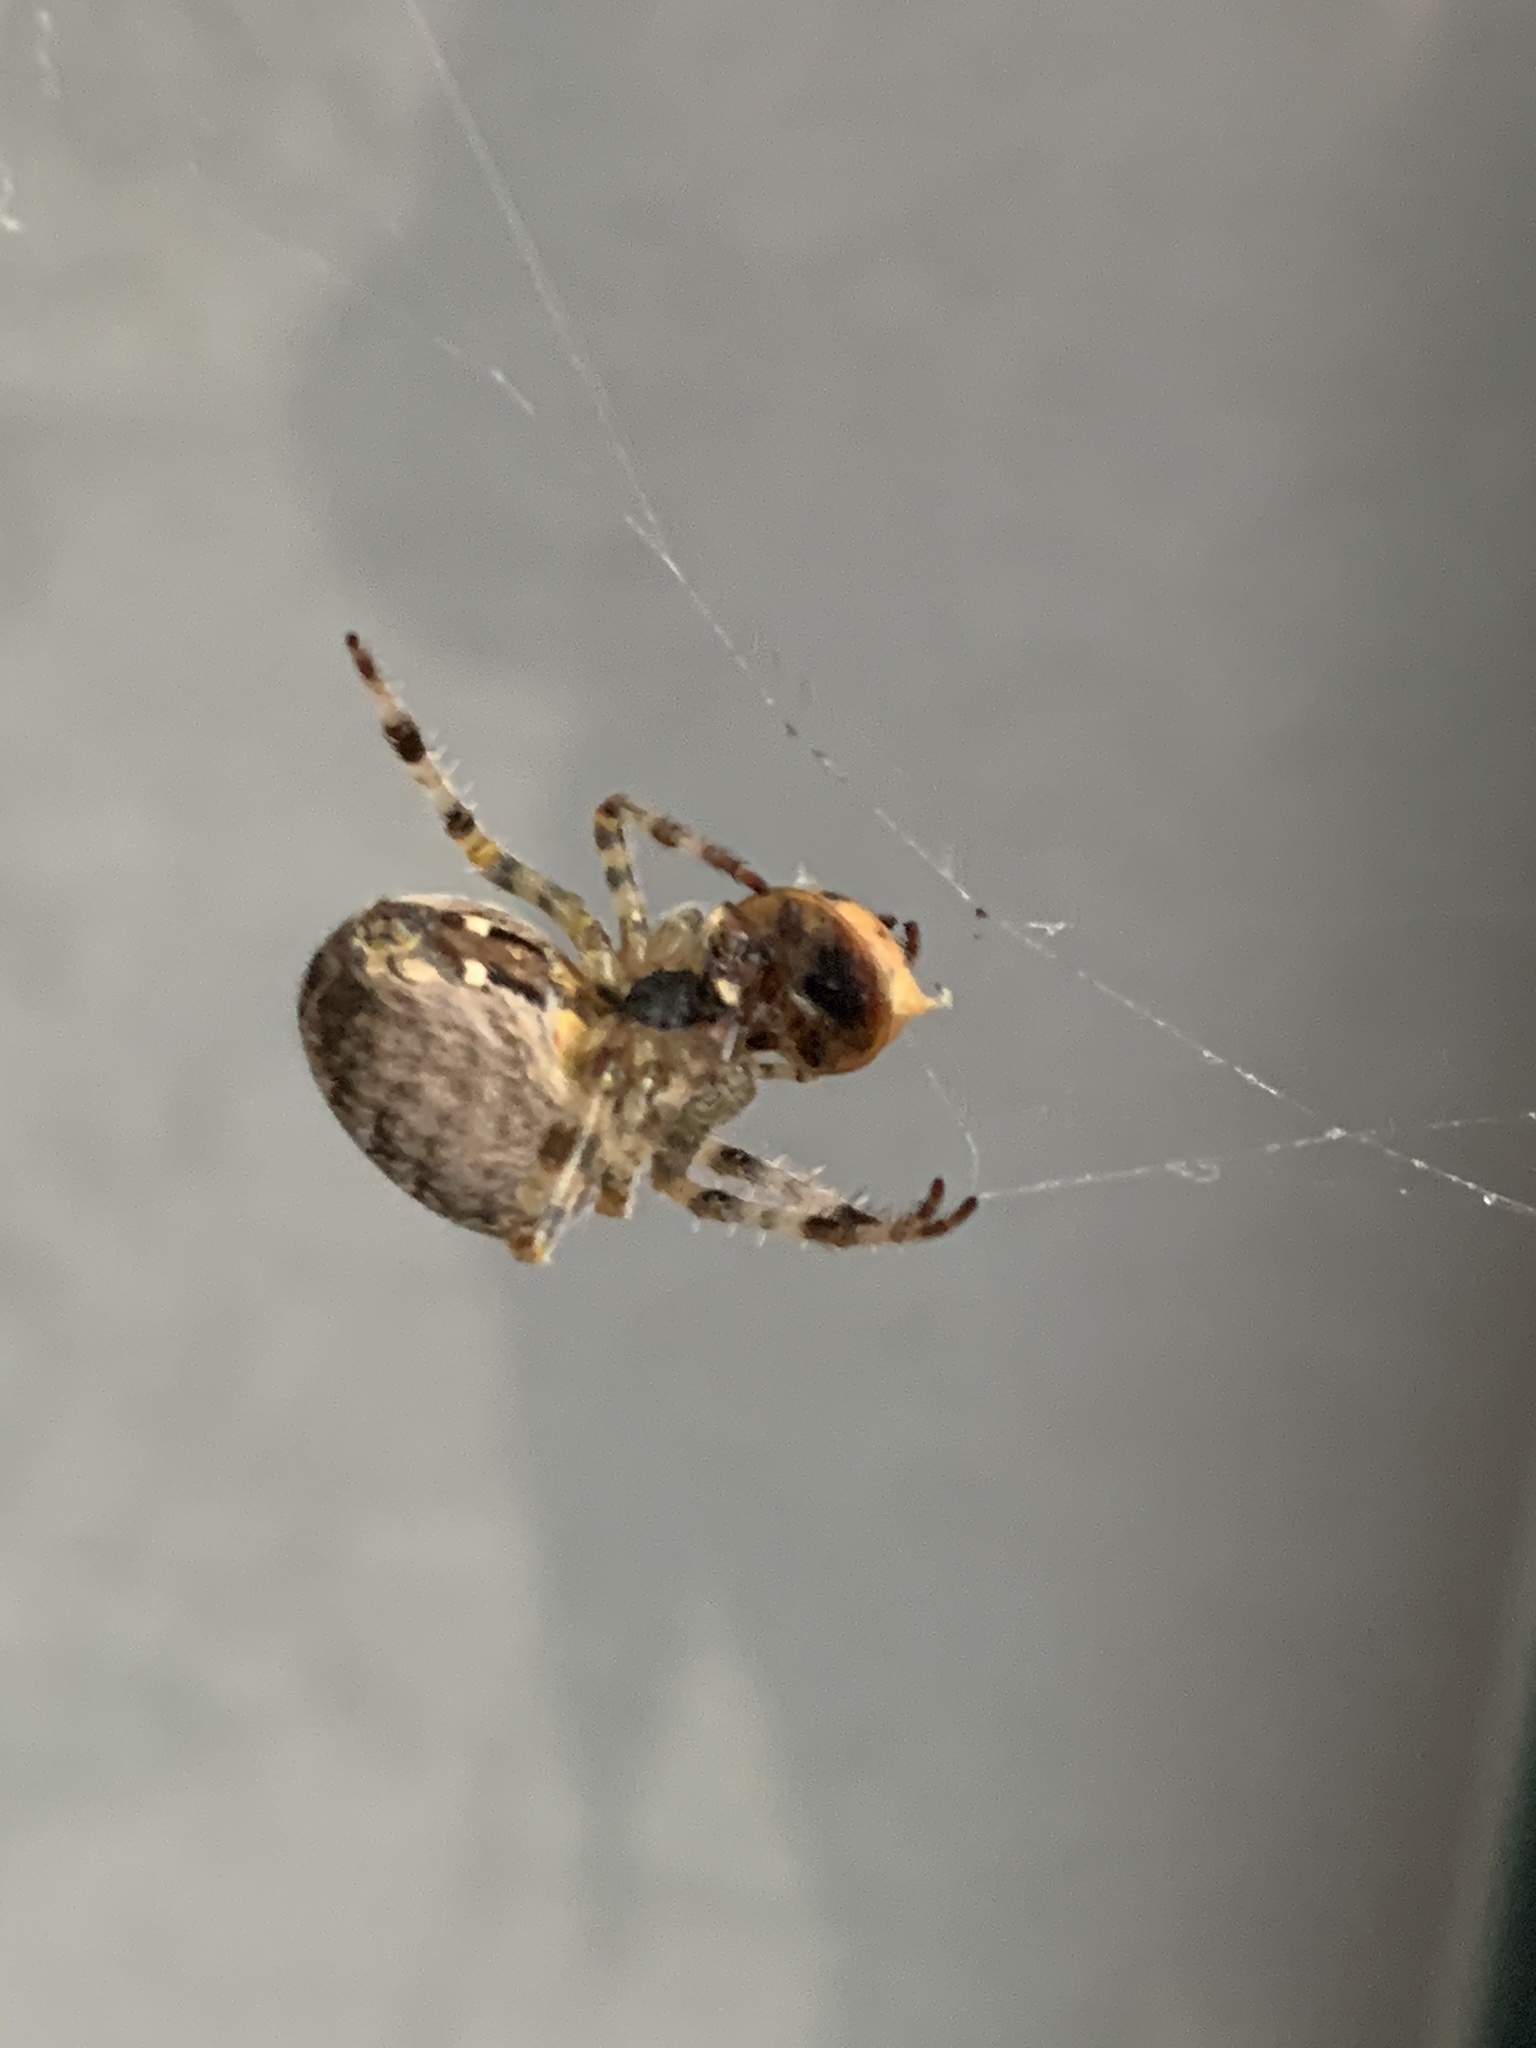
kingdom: Animalia
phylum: Arthropoda
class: Arachnida
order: Araneae
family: Araneidae
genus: Araneus
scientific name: Araneus diadematus
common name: Cross orbweaver
